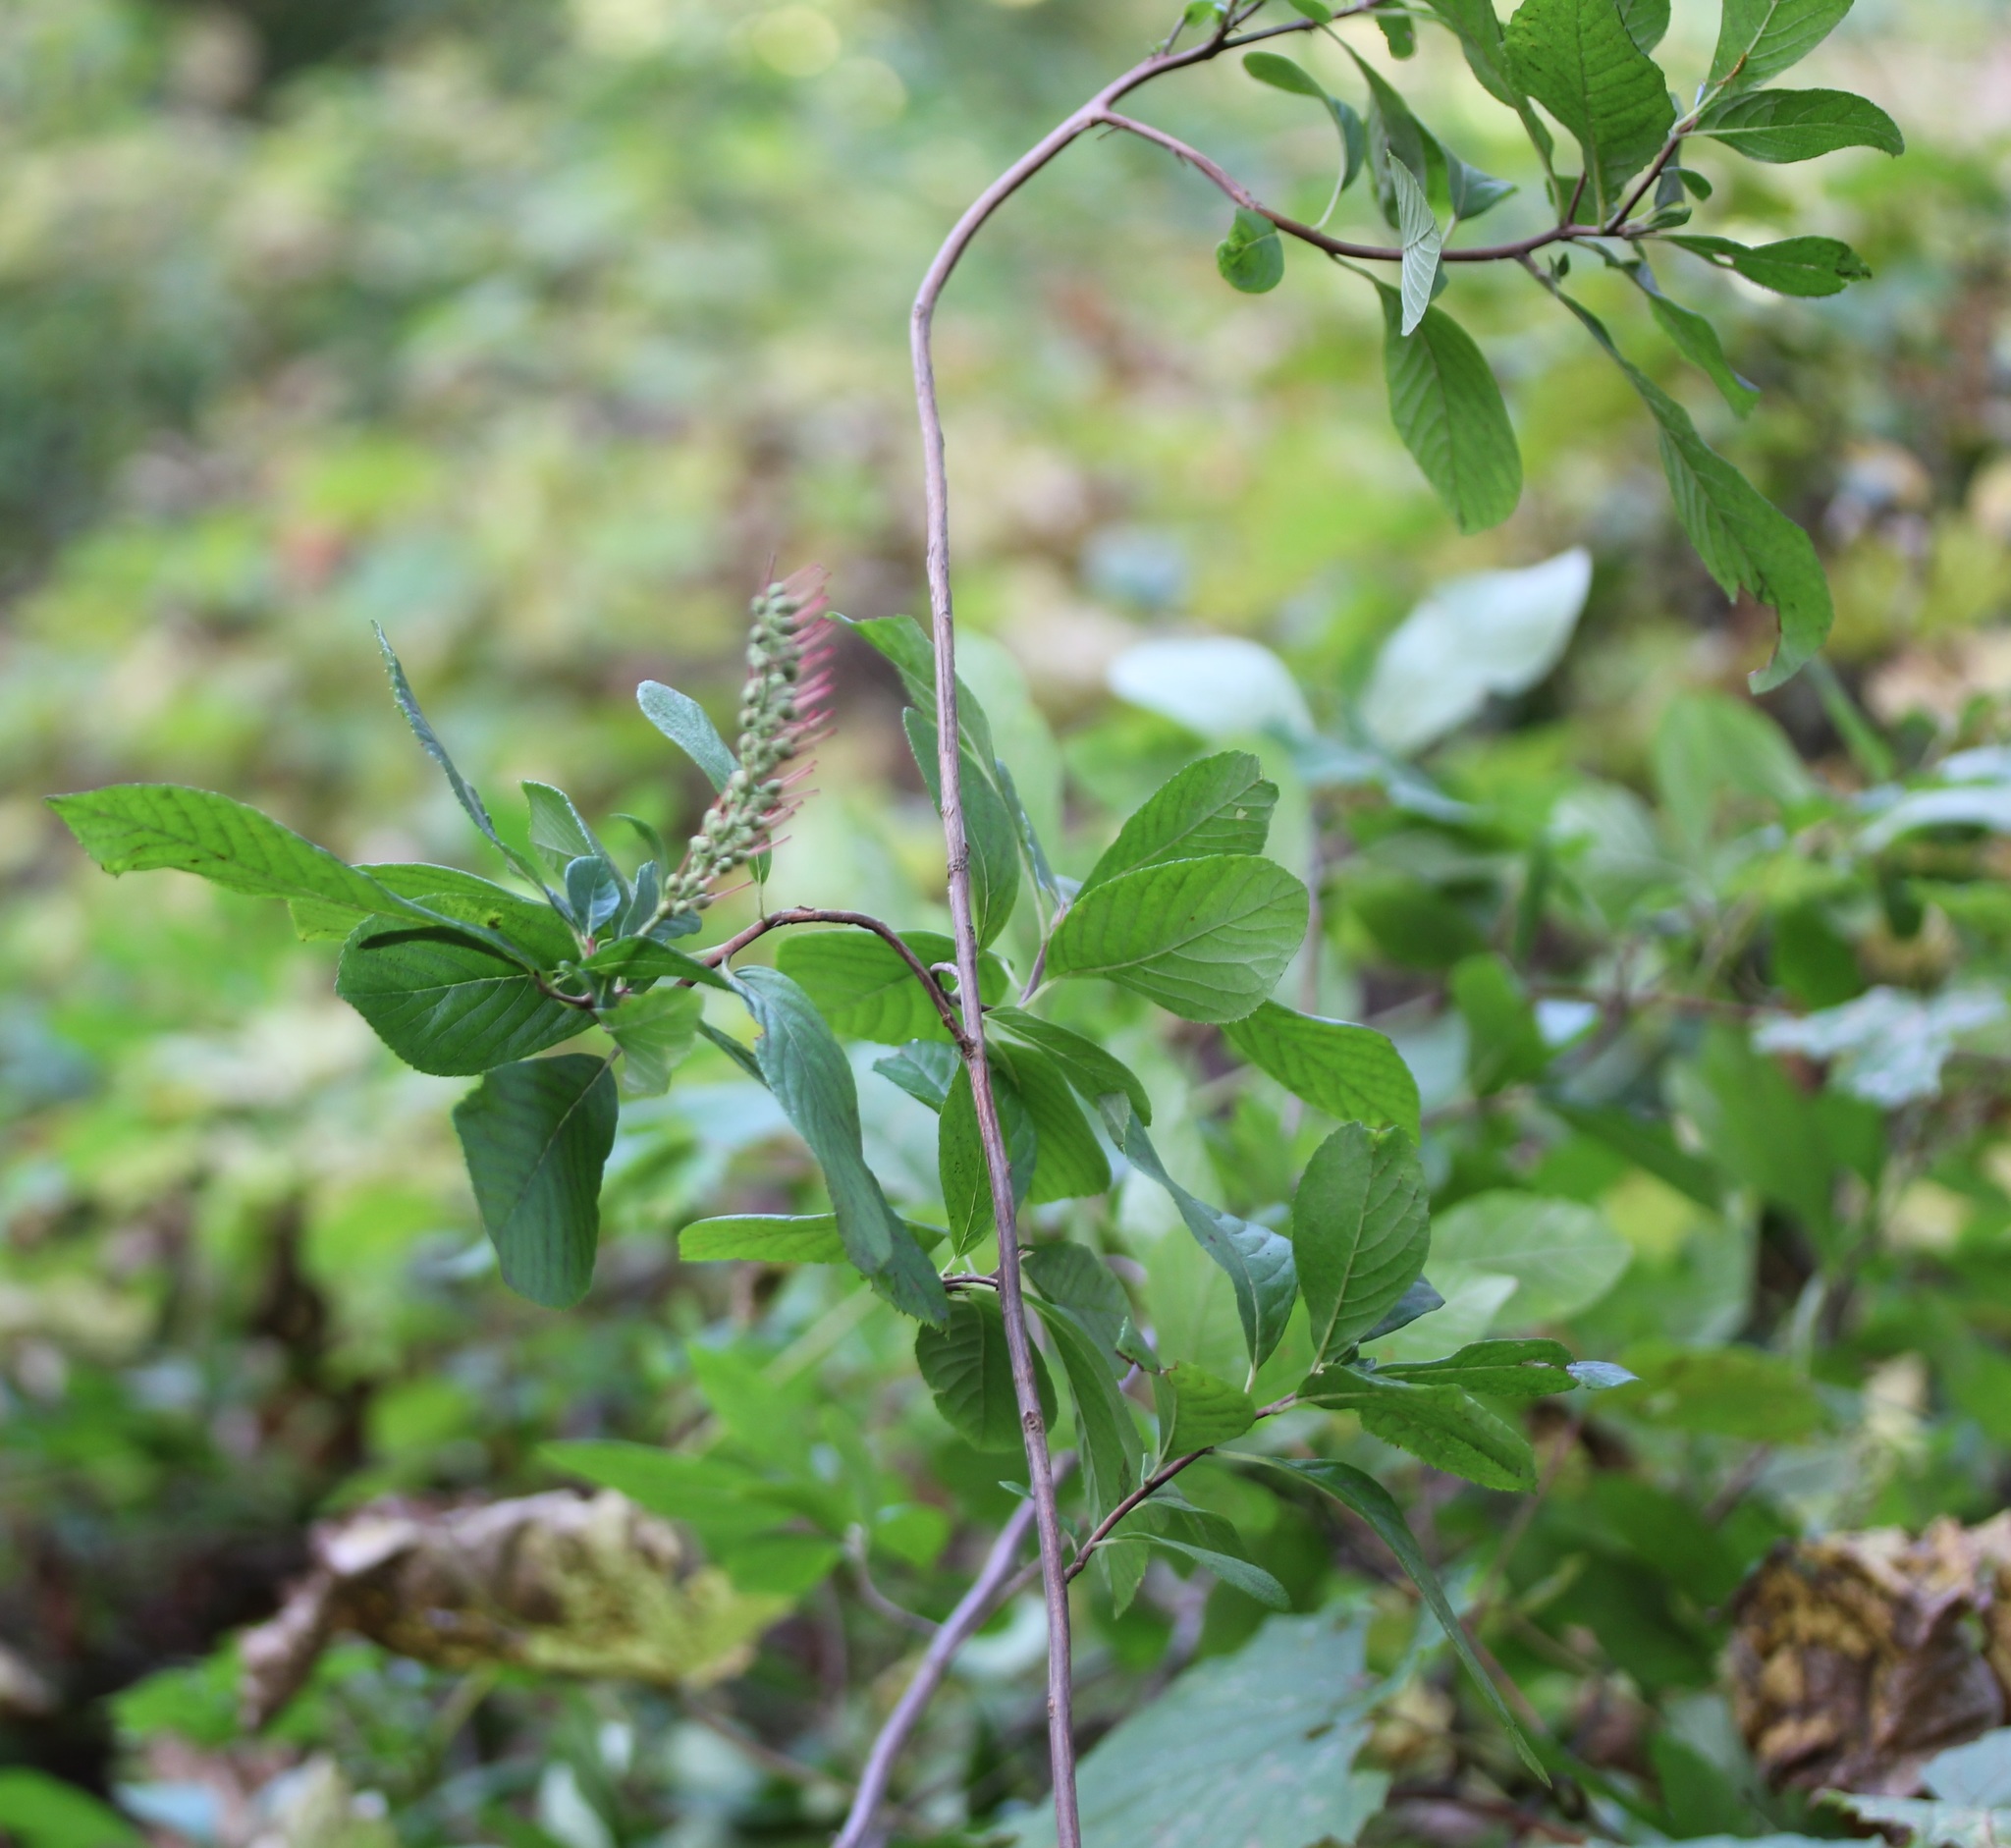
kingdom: Plantae
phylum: Tracheophyta
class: Magnoliopsida
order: Ericales
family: Clethraceae
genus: Clethra
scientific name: Clethra alnifolia
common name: Sweet pepperbush
